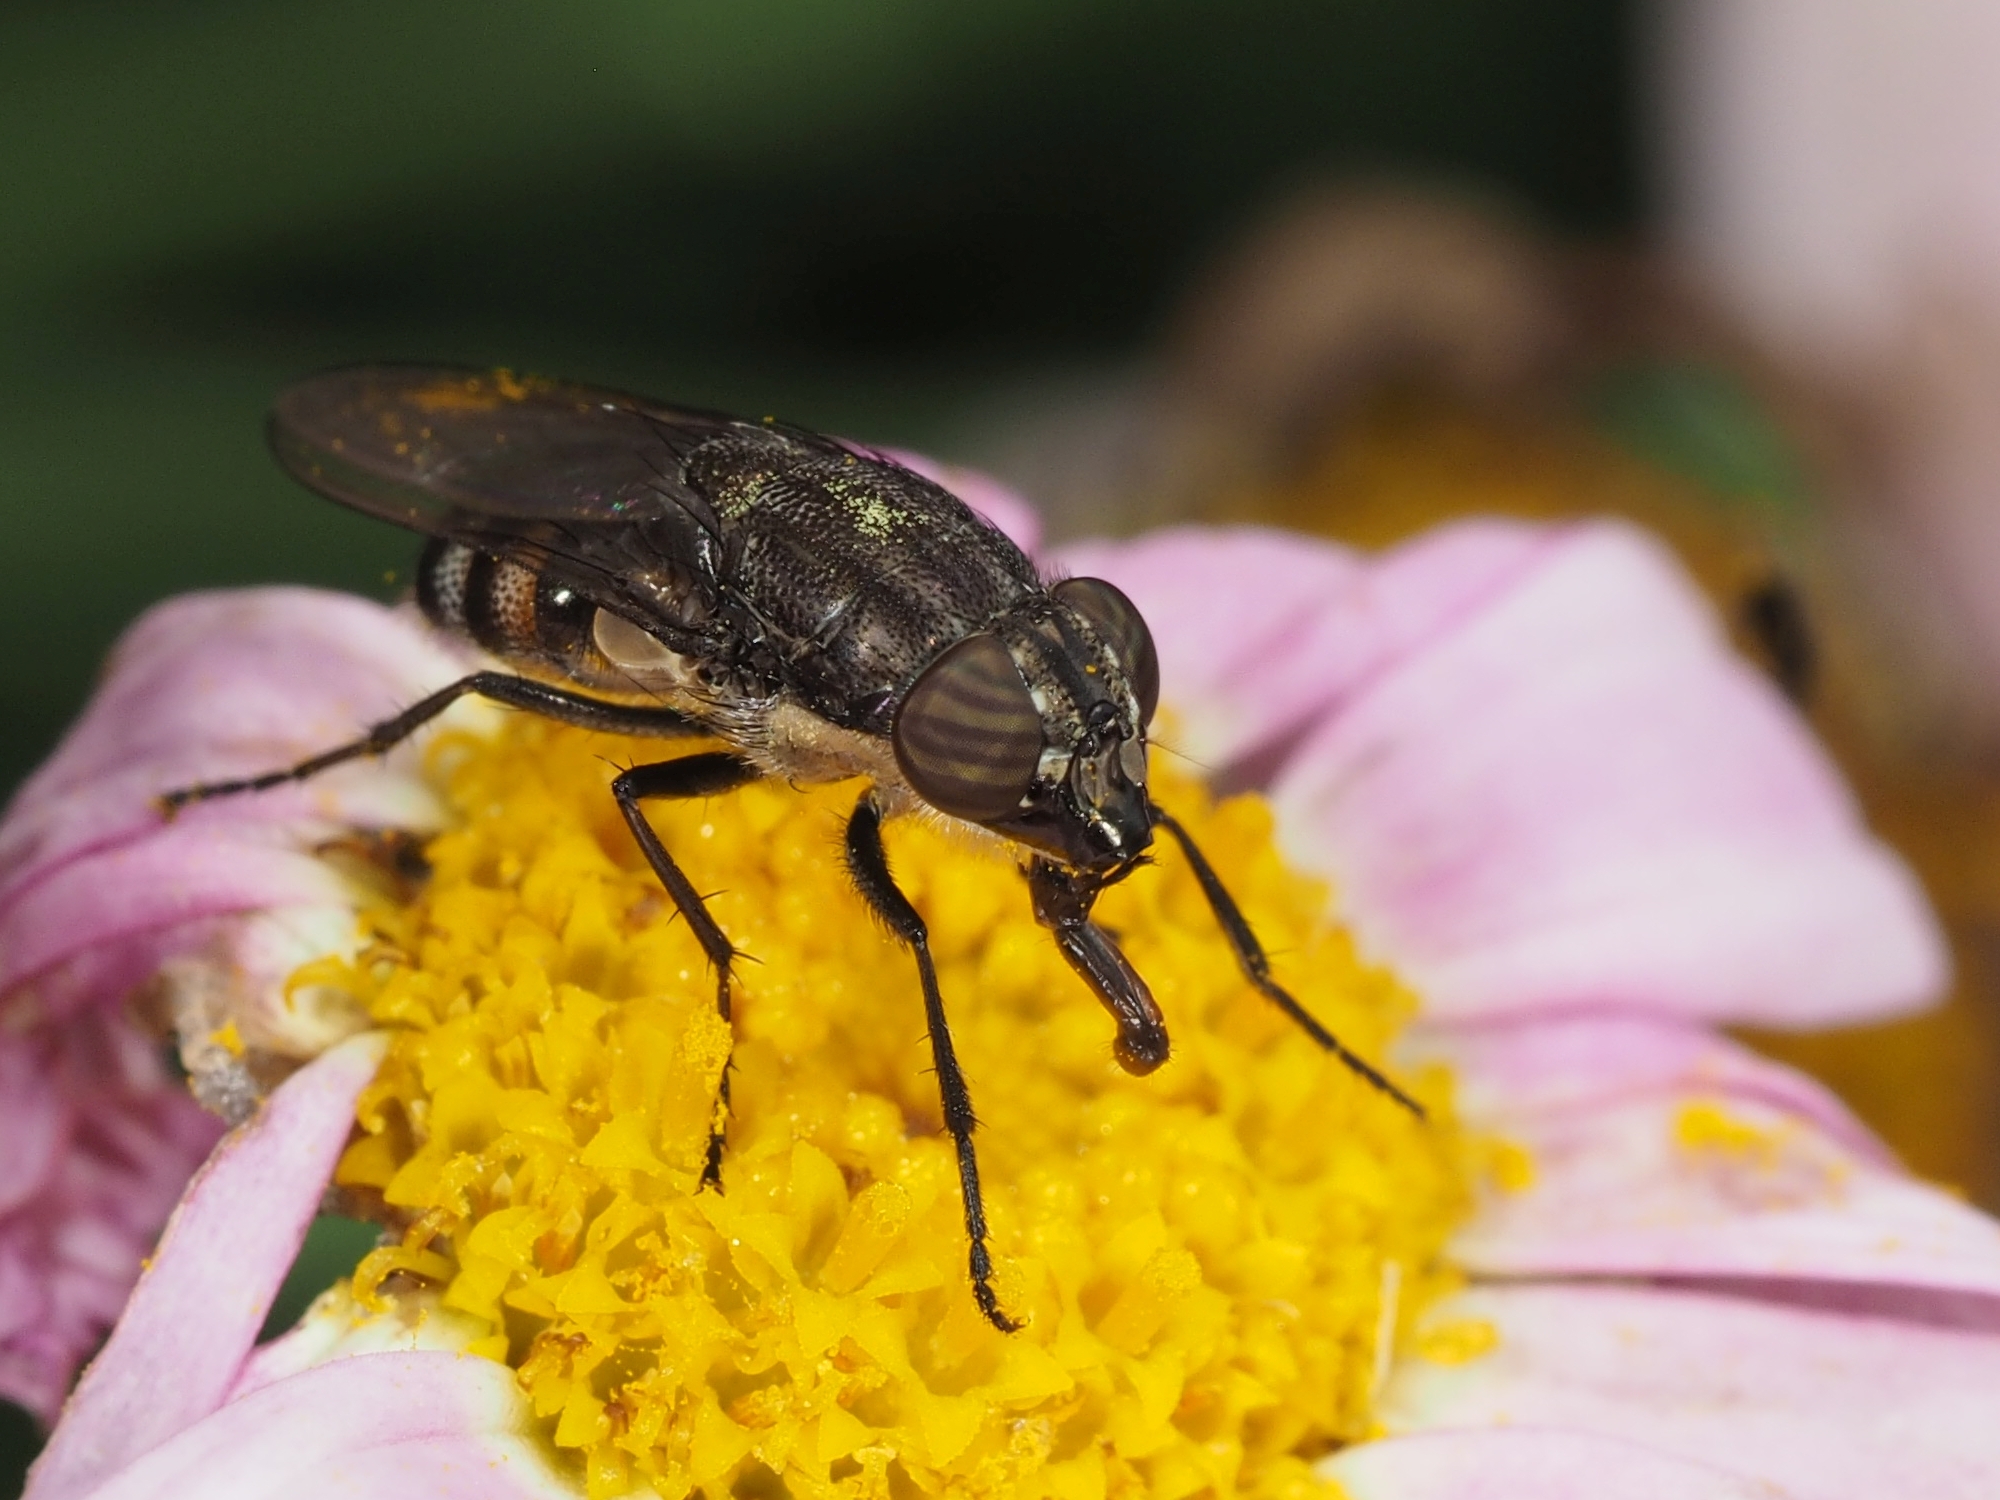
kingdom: Animalia
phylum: Arthropoda
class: Insecta
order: Diptera
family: Calliphoridae
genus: Stomorhina
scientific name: Stomorhina lunata
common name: Locust blowfly
